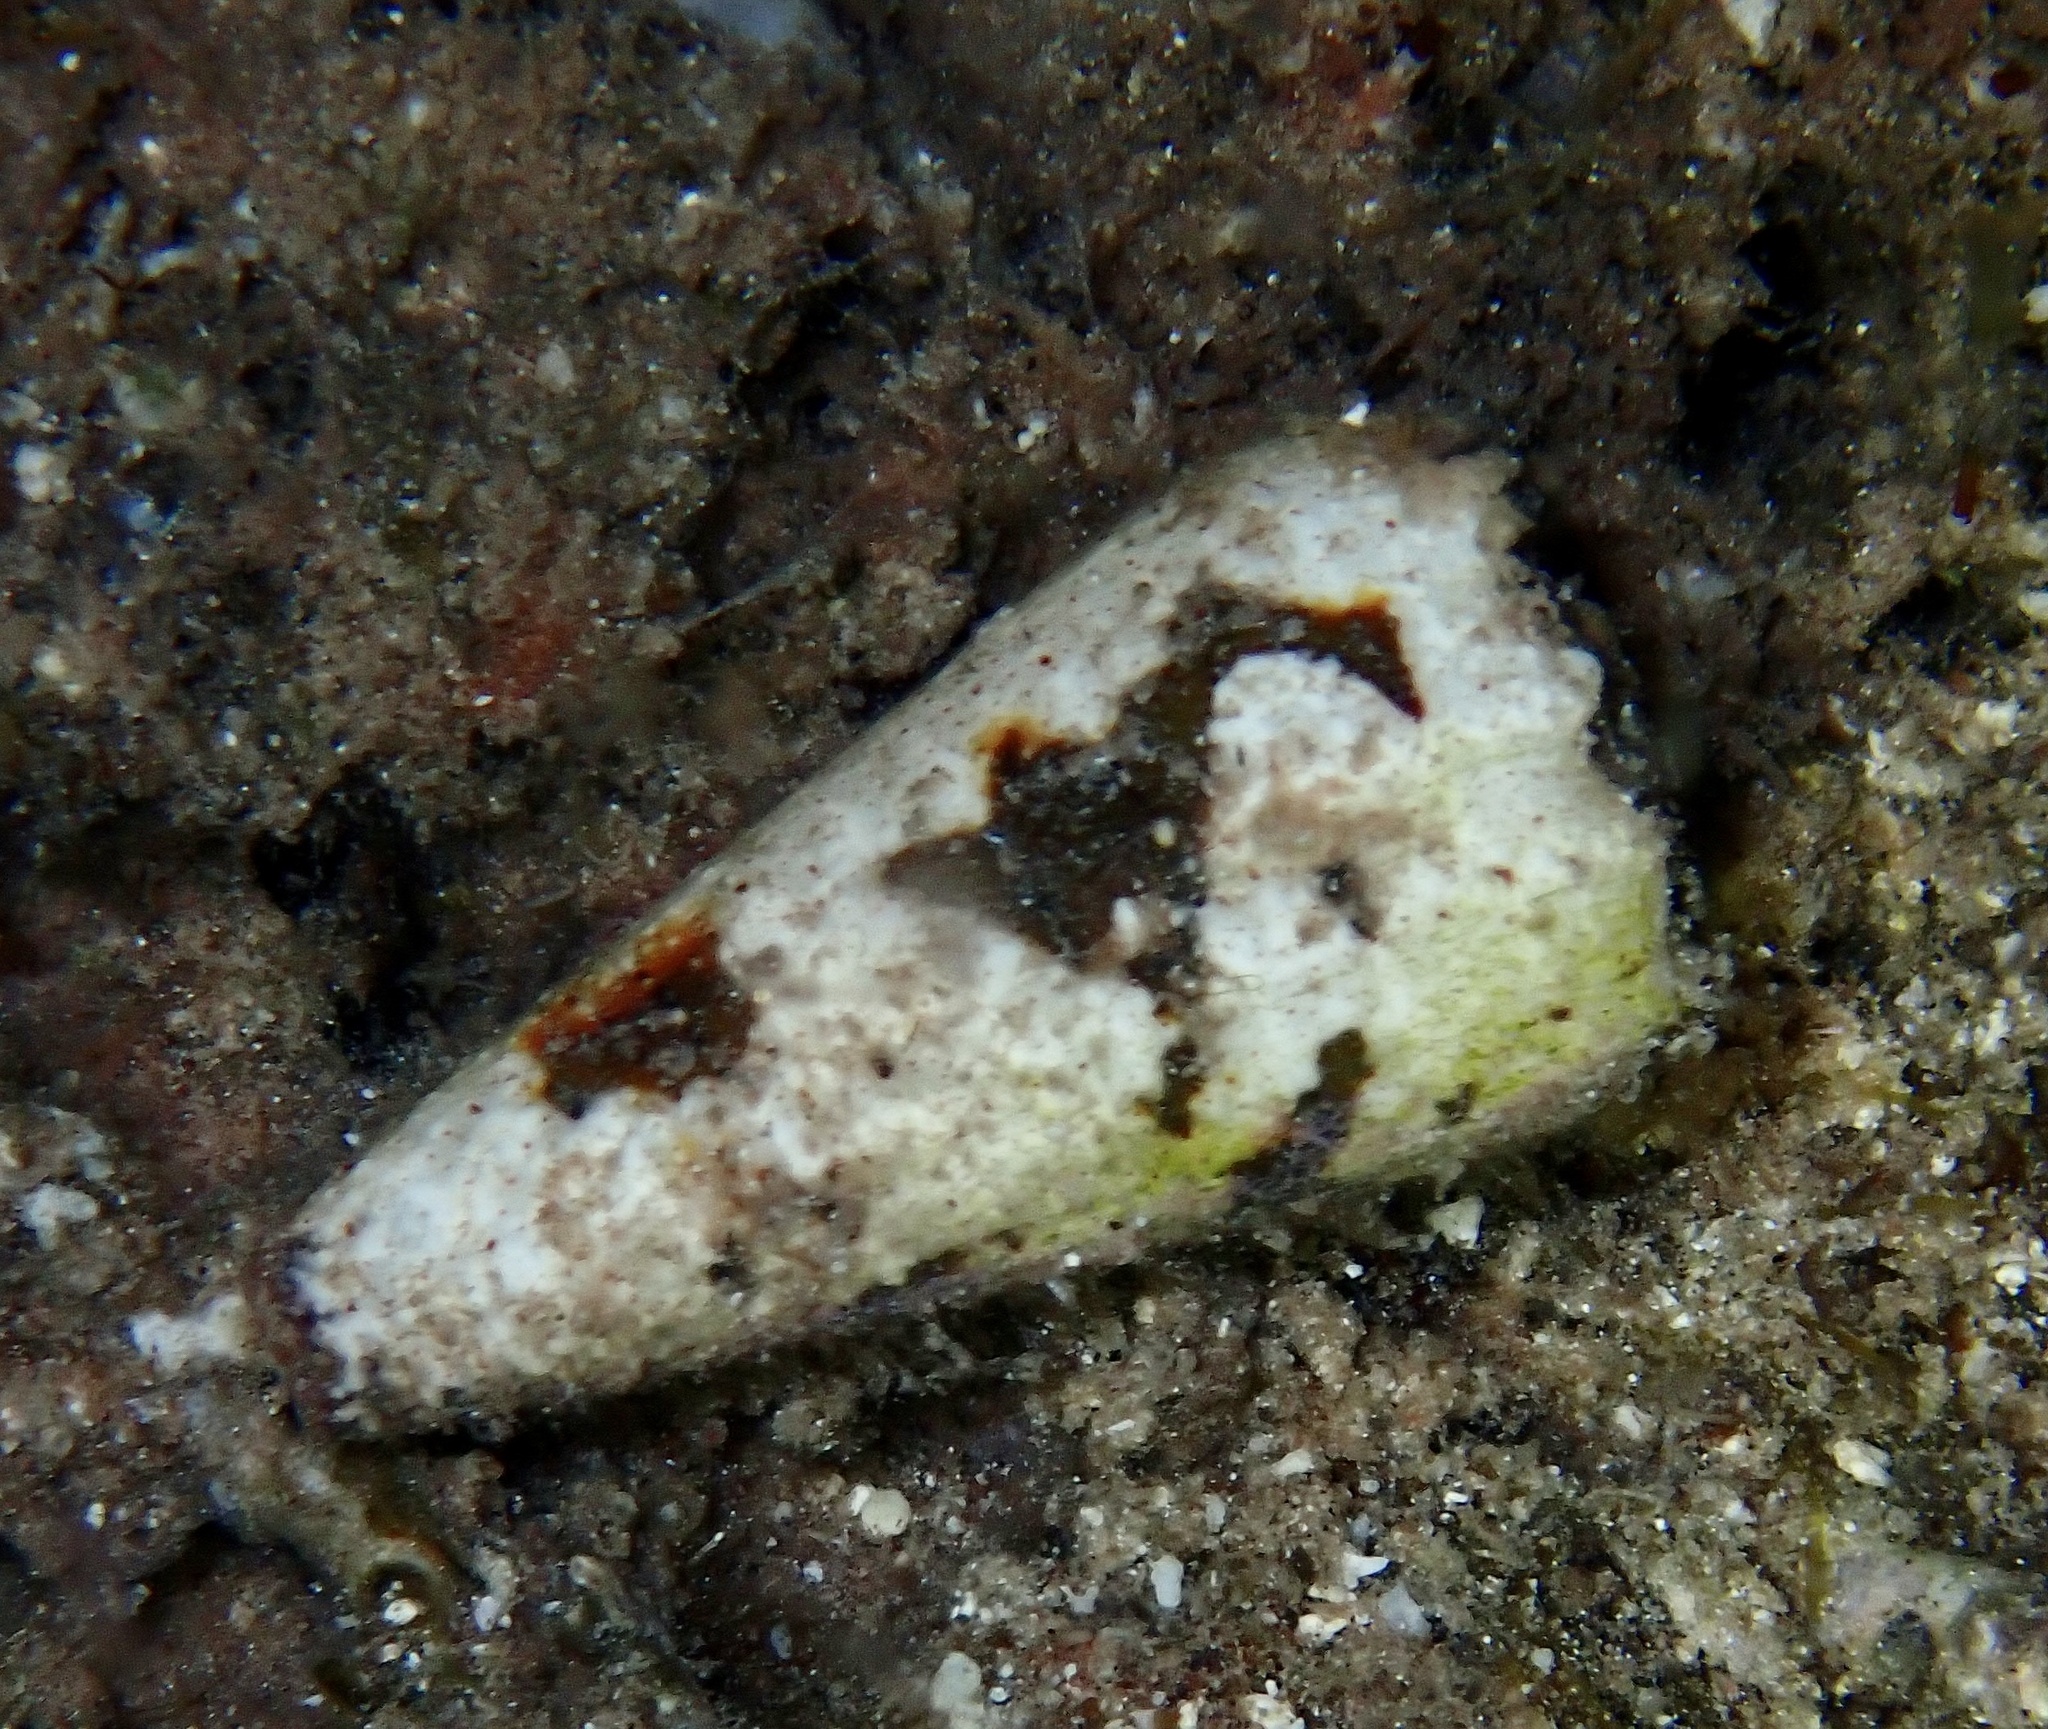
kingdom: Animalia
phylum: Mollusca
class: Gastropoda
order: Neogastropoda
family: Conidae
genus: Conus
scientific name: Conus imperialis
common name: Imperial cone
